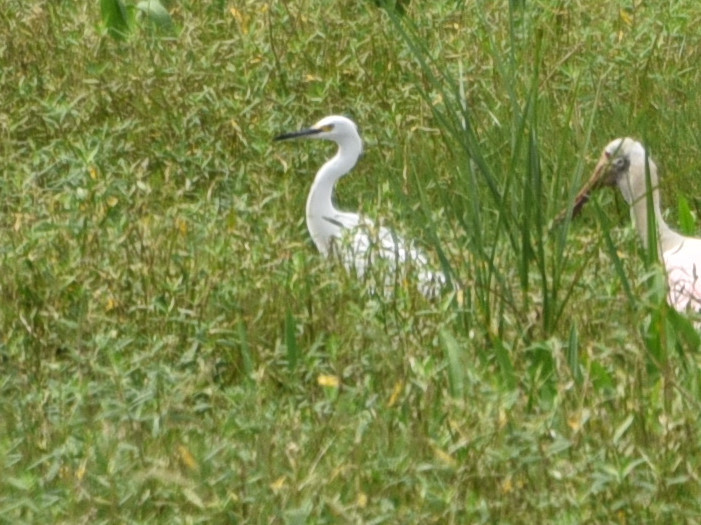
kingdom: Animalia
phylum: Chordata
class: Aves
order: Pelecaniformes
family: Ardeidae
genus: Egretta
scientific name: Egretta thula
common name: Snowy egret
